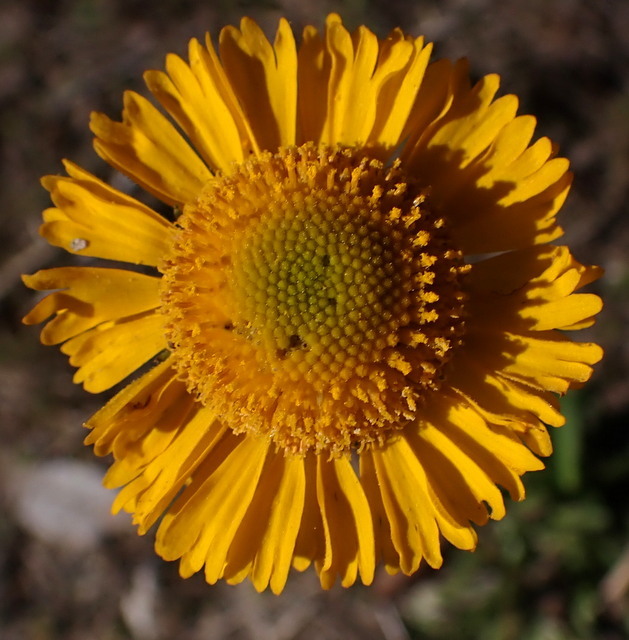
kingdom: Plantae
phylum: Tracheophyta
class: Magnoliopsida
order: Asterales
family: Asteraceae
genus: Helenium
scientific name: Helenium pinnatifidum
